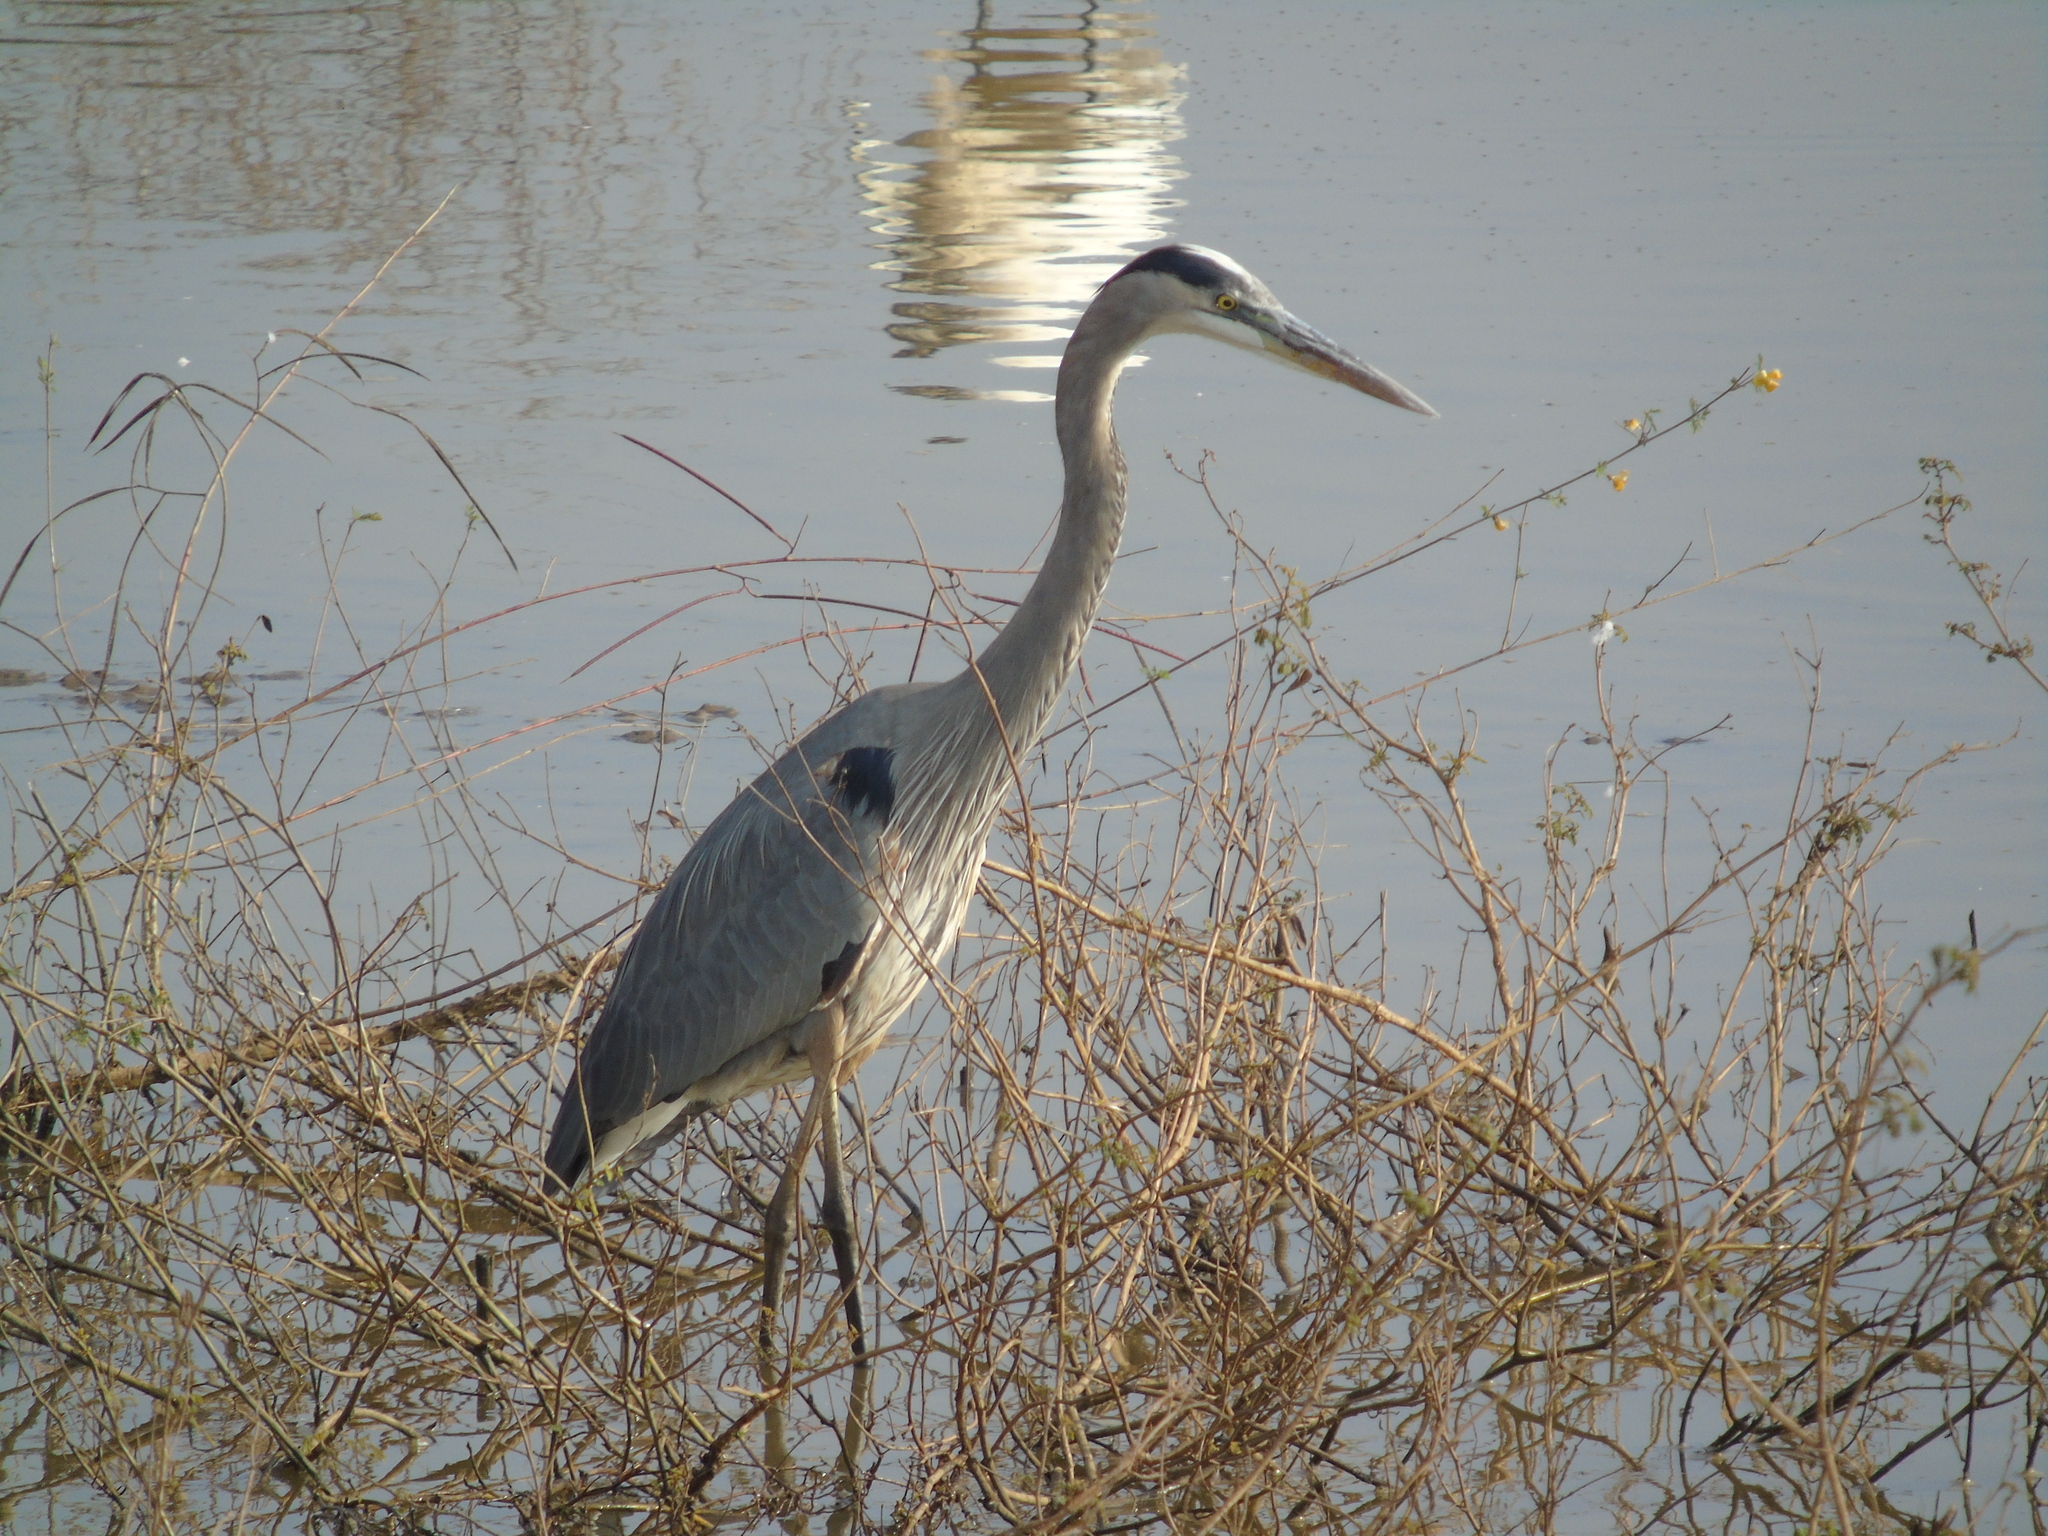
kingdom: Animalia
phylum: Chordata
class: Aves
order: Pelecaniformes
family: Ardeidae
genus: Ardea
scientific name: Ardea herodias
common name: Great blue heron
